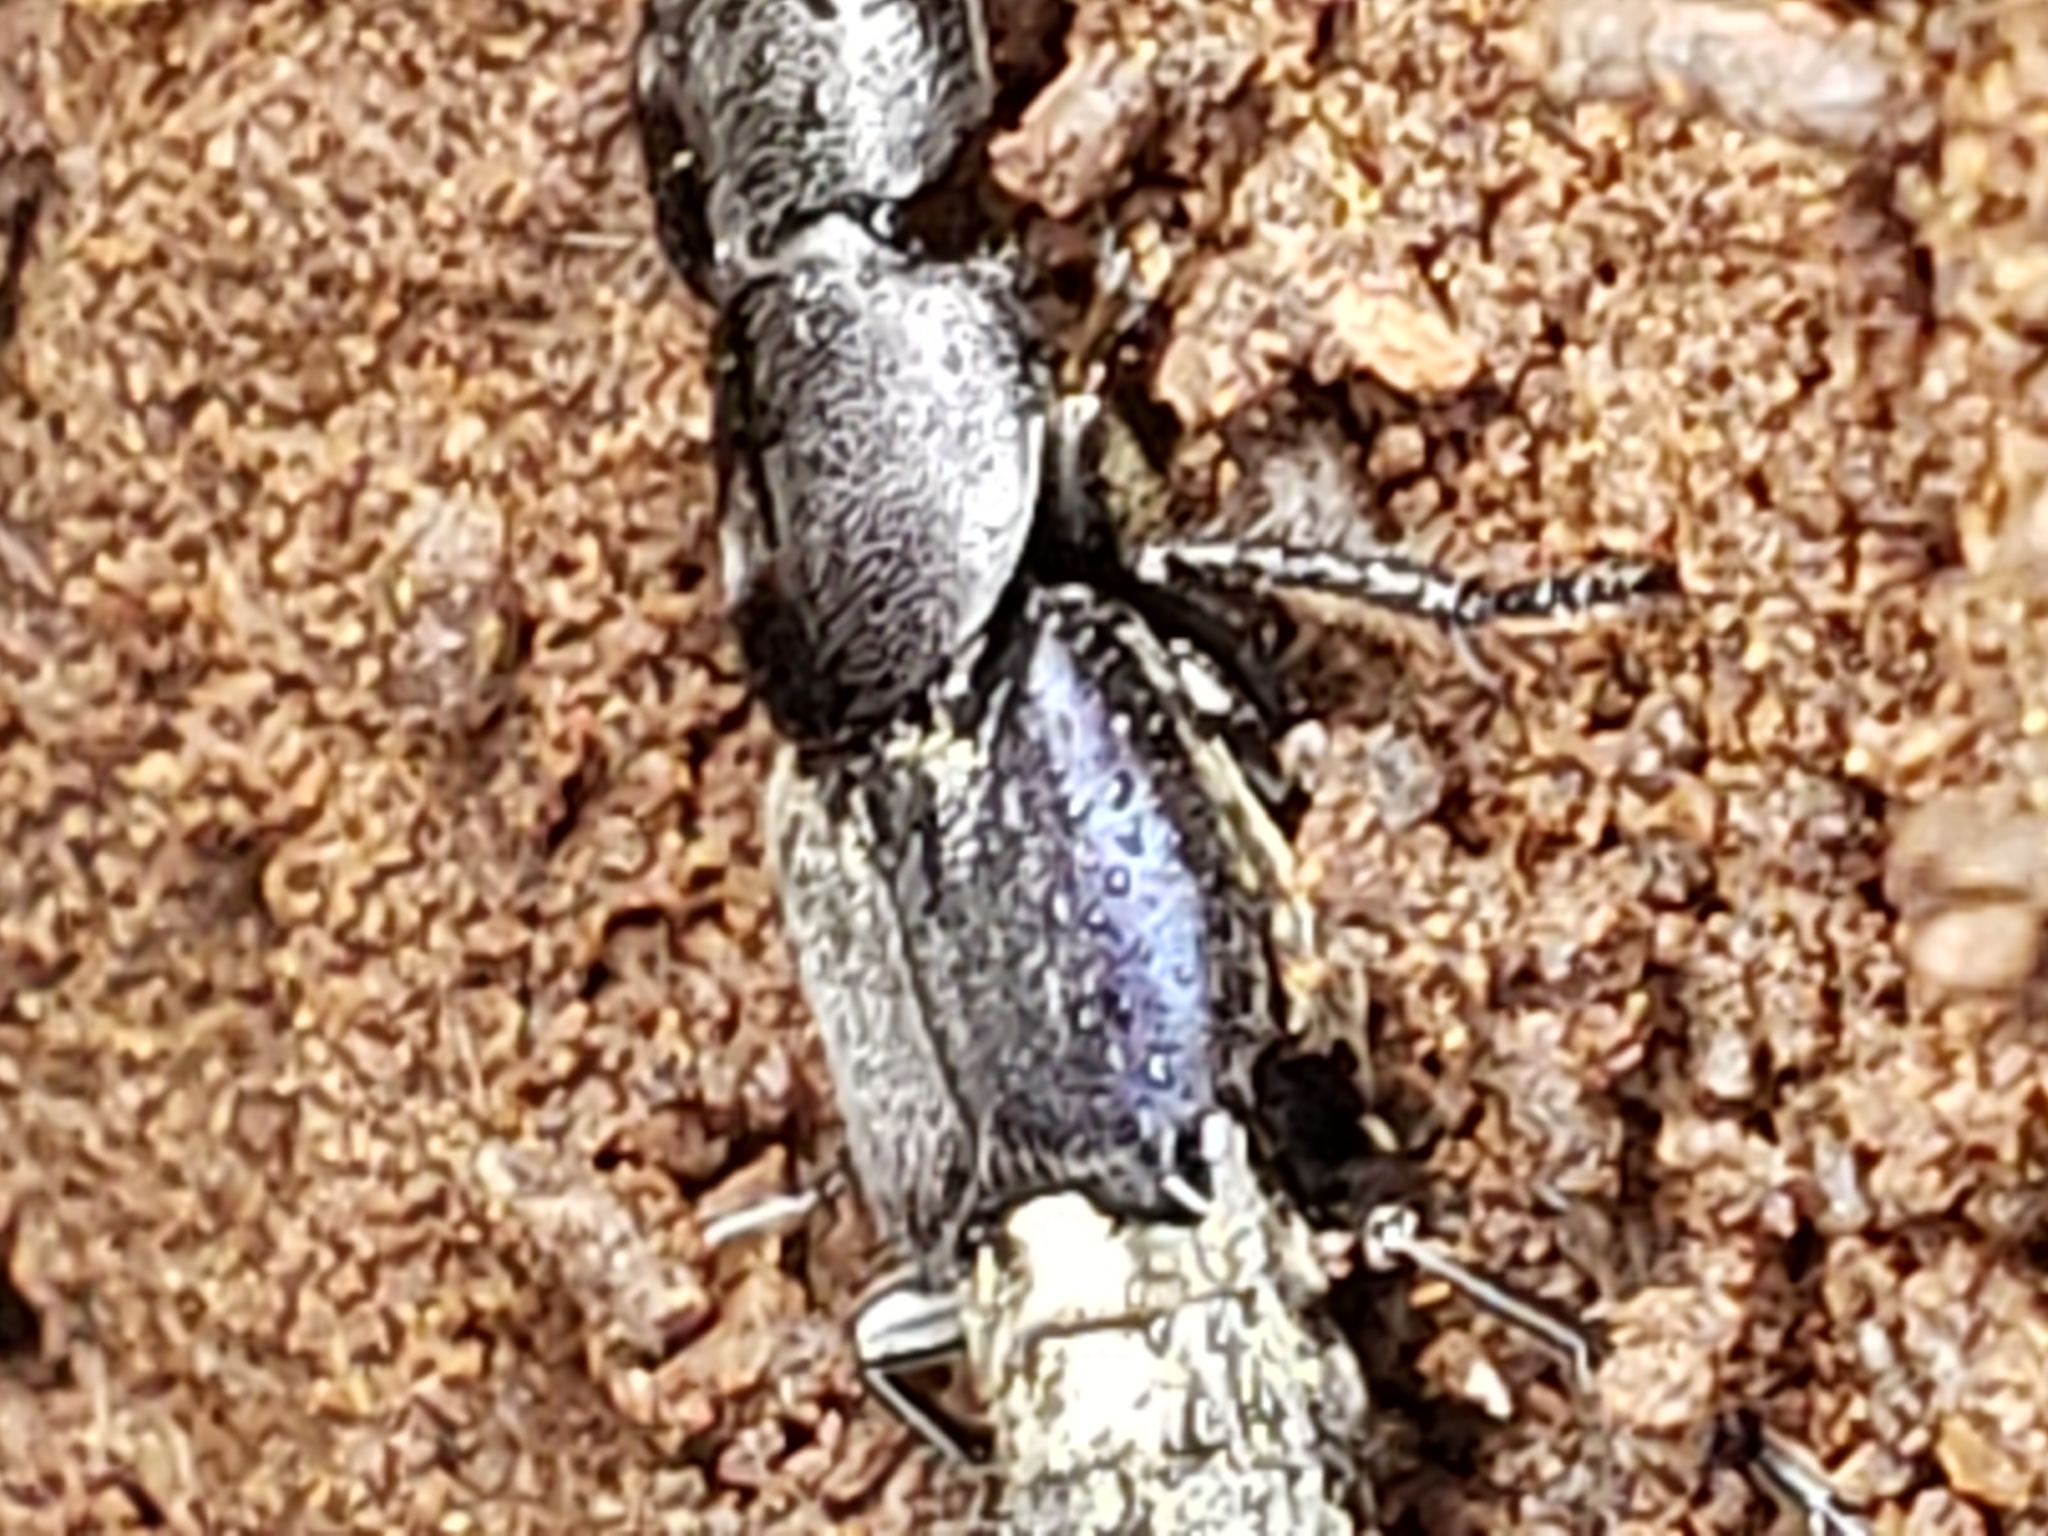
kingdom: Animalia
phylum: Arthropoda
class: Insecta
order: Coleoptera
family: Staphylinidae
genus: Platydracus
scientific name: Platydracus violaceus
